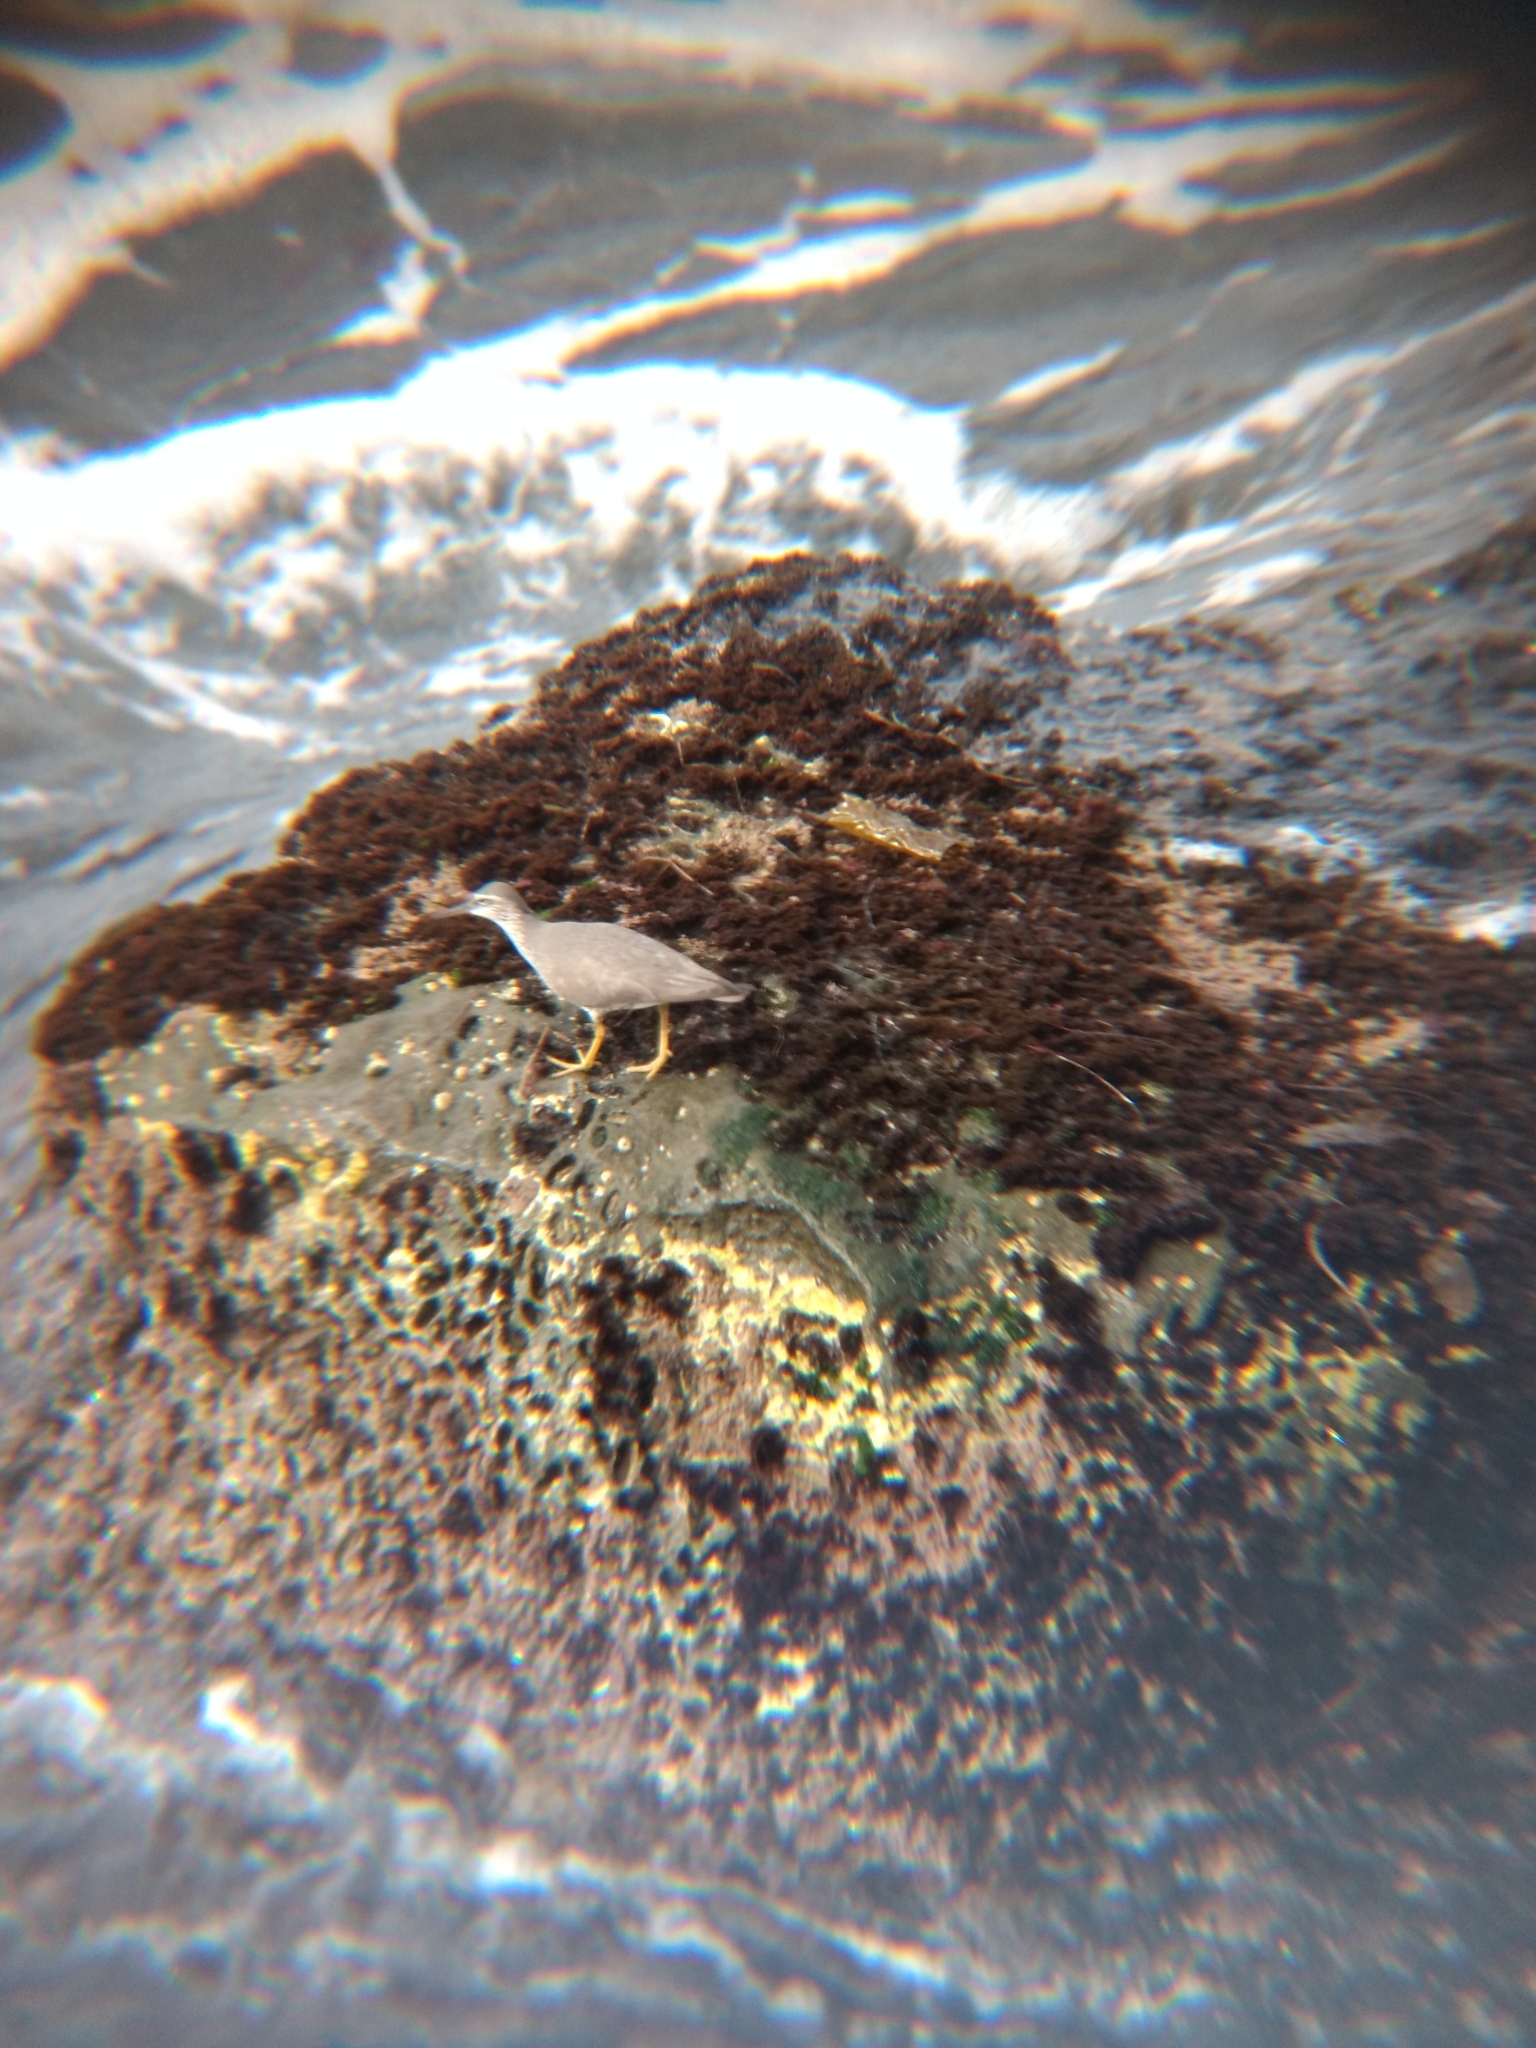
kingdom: Animalia
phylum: Chordata
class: Aves
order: Charadriiformes
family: Scolopacidae
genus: Tringa
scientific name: Tringa incana
